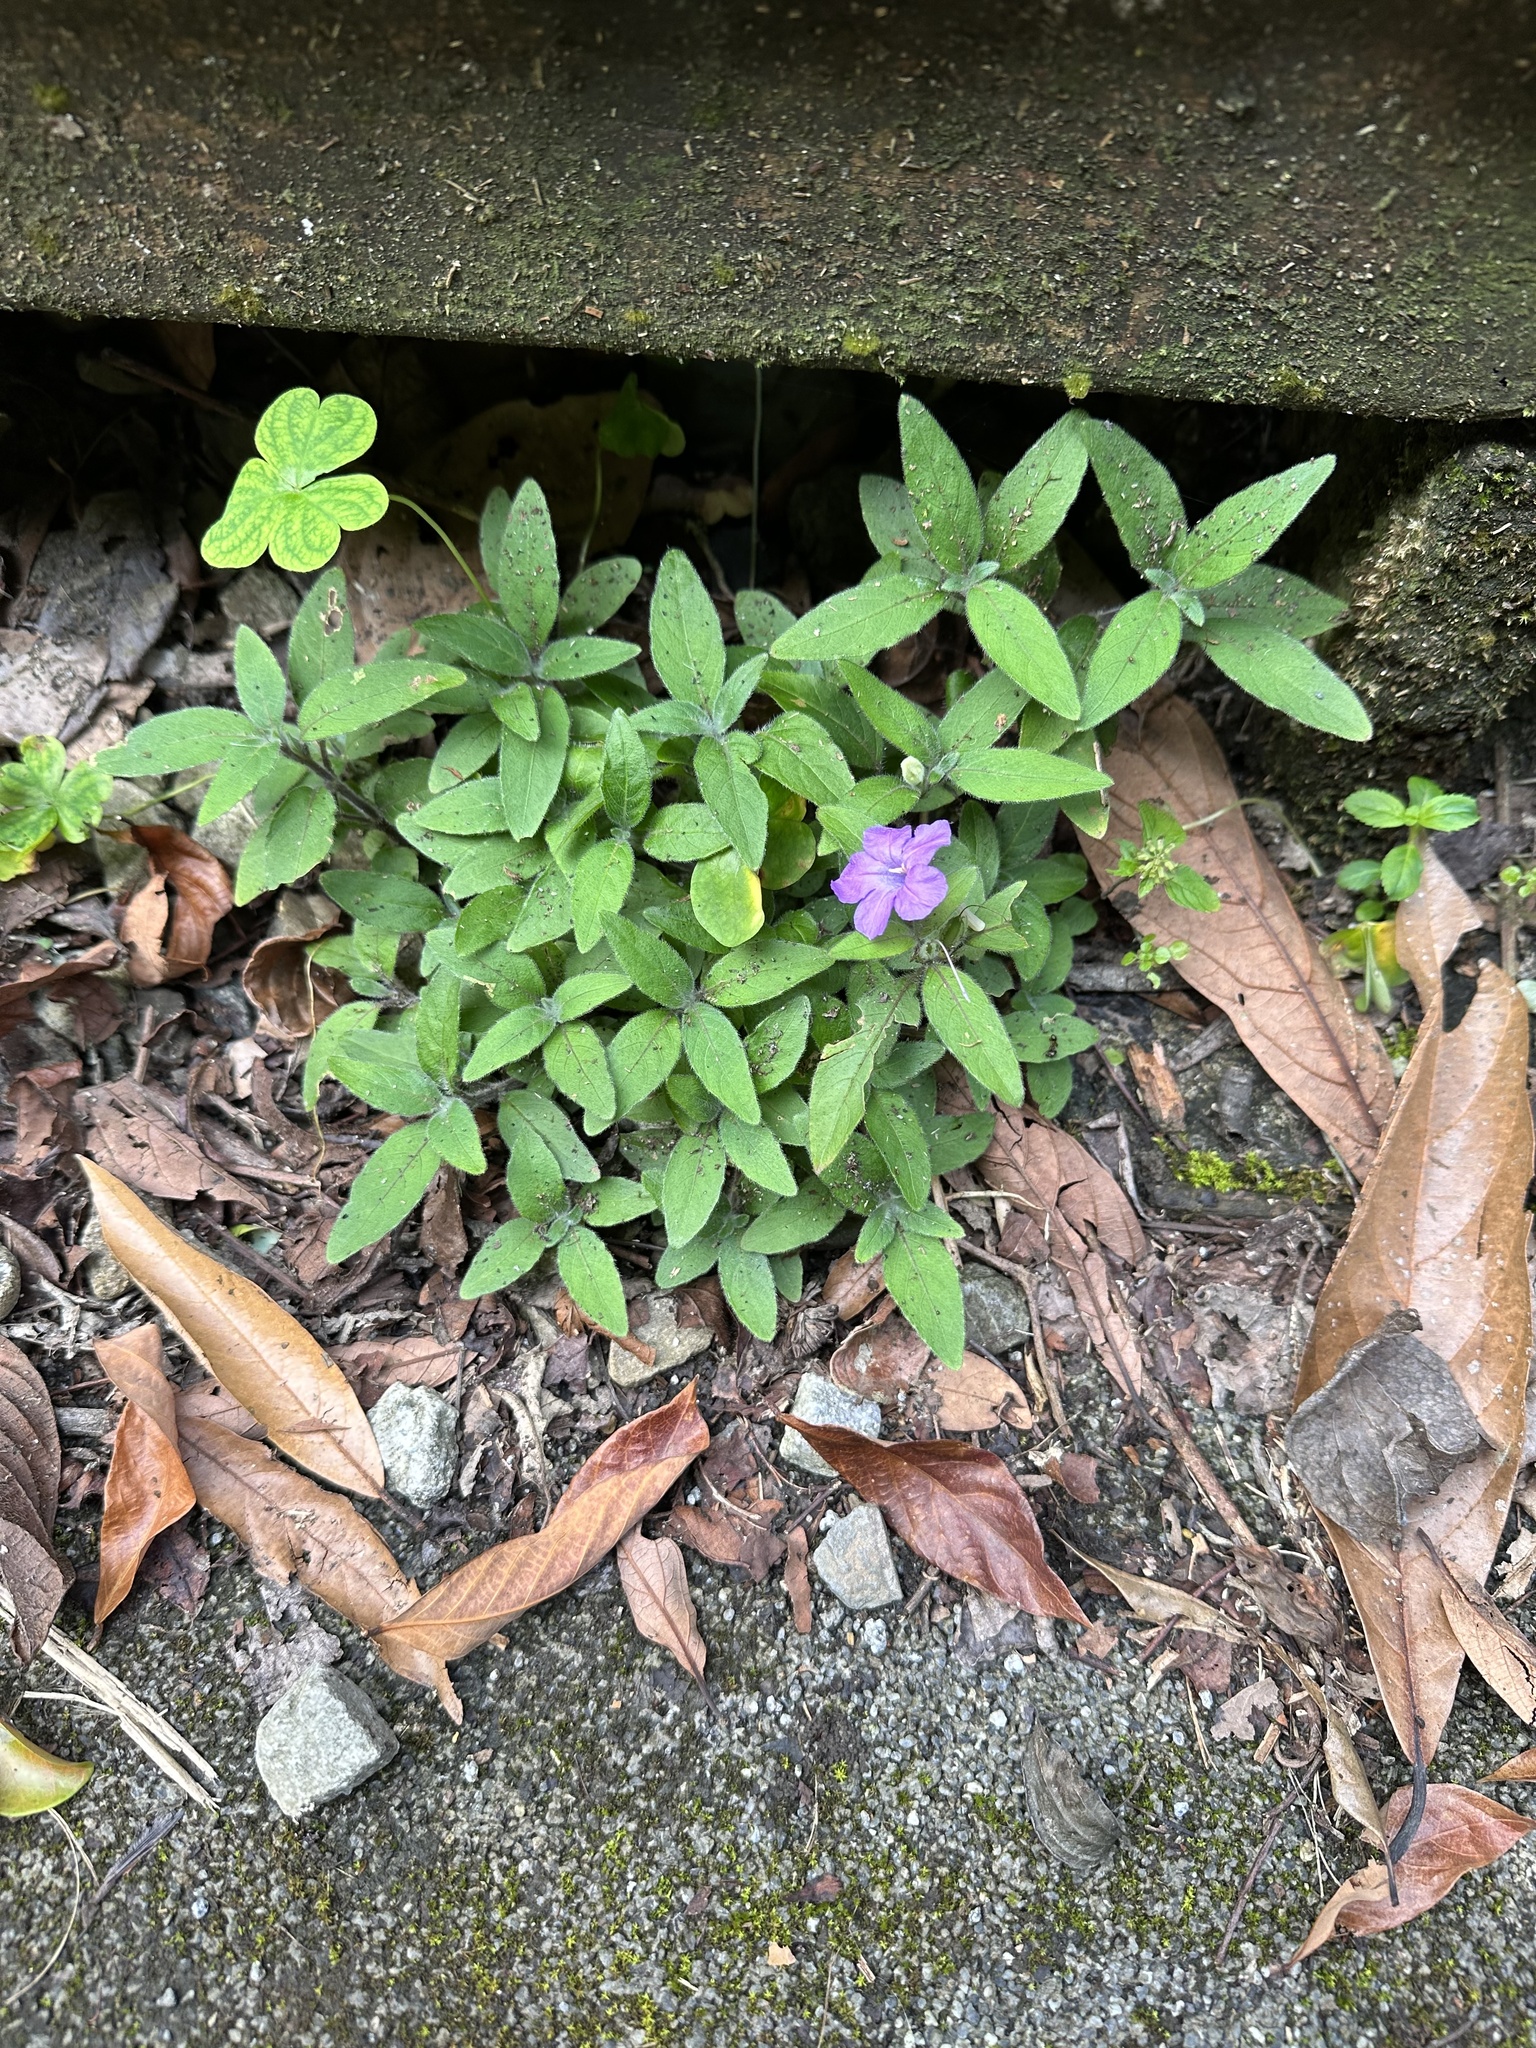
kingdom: Plantae
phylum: Tracheophyta
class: Magnoliopsida
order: Lamiales
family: Acanthaceae
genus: Ruellia
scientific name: Ruellia squarrosa
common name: Water bluebell
